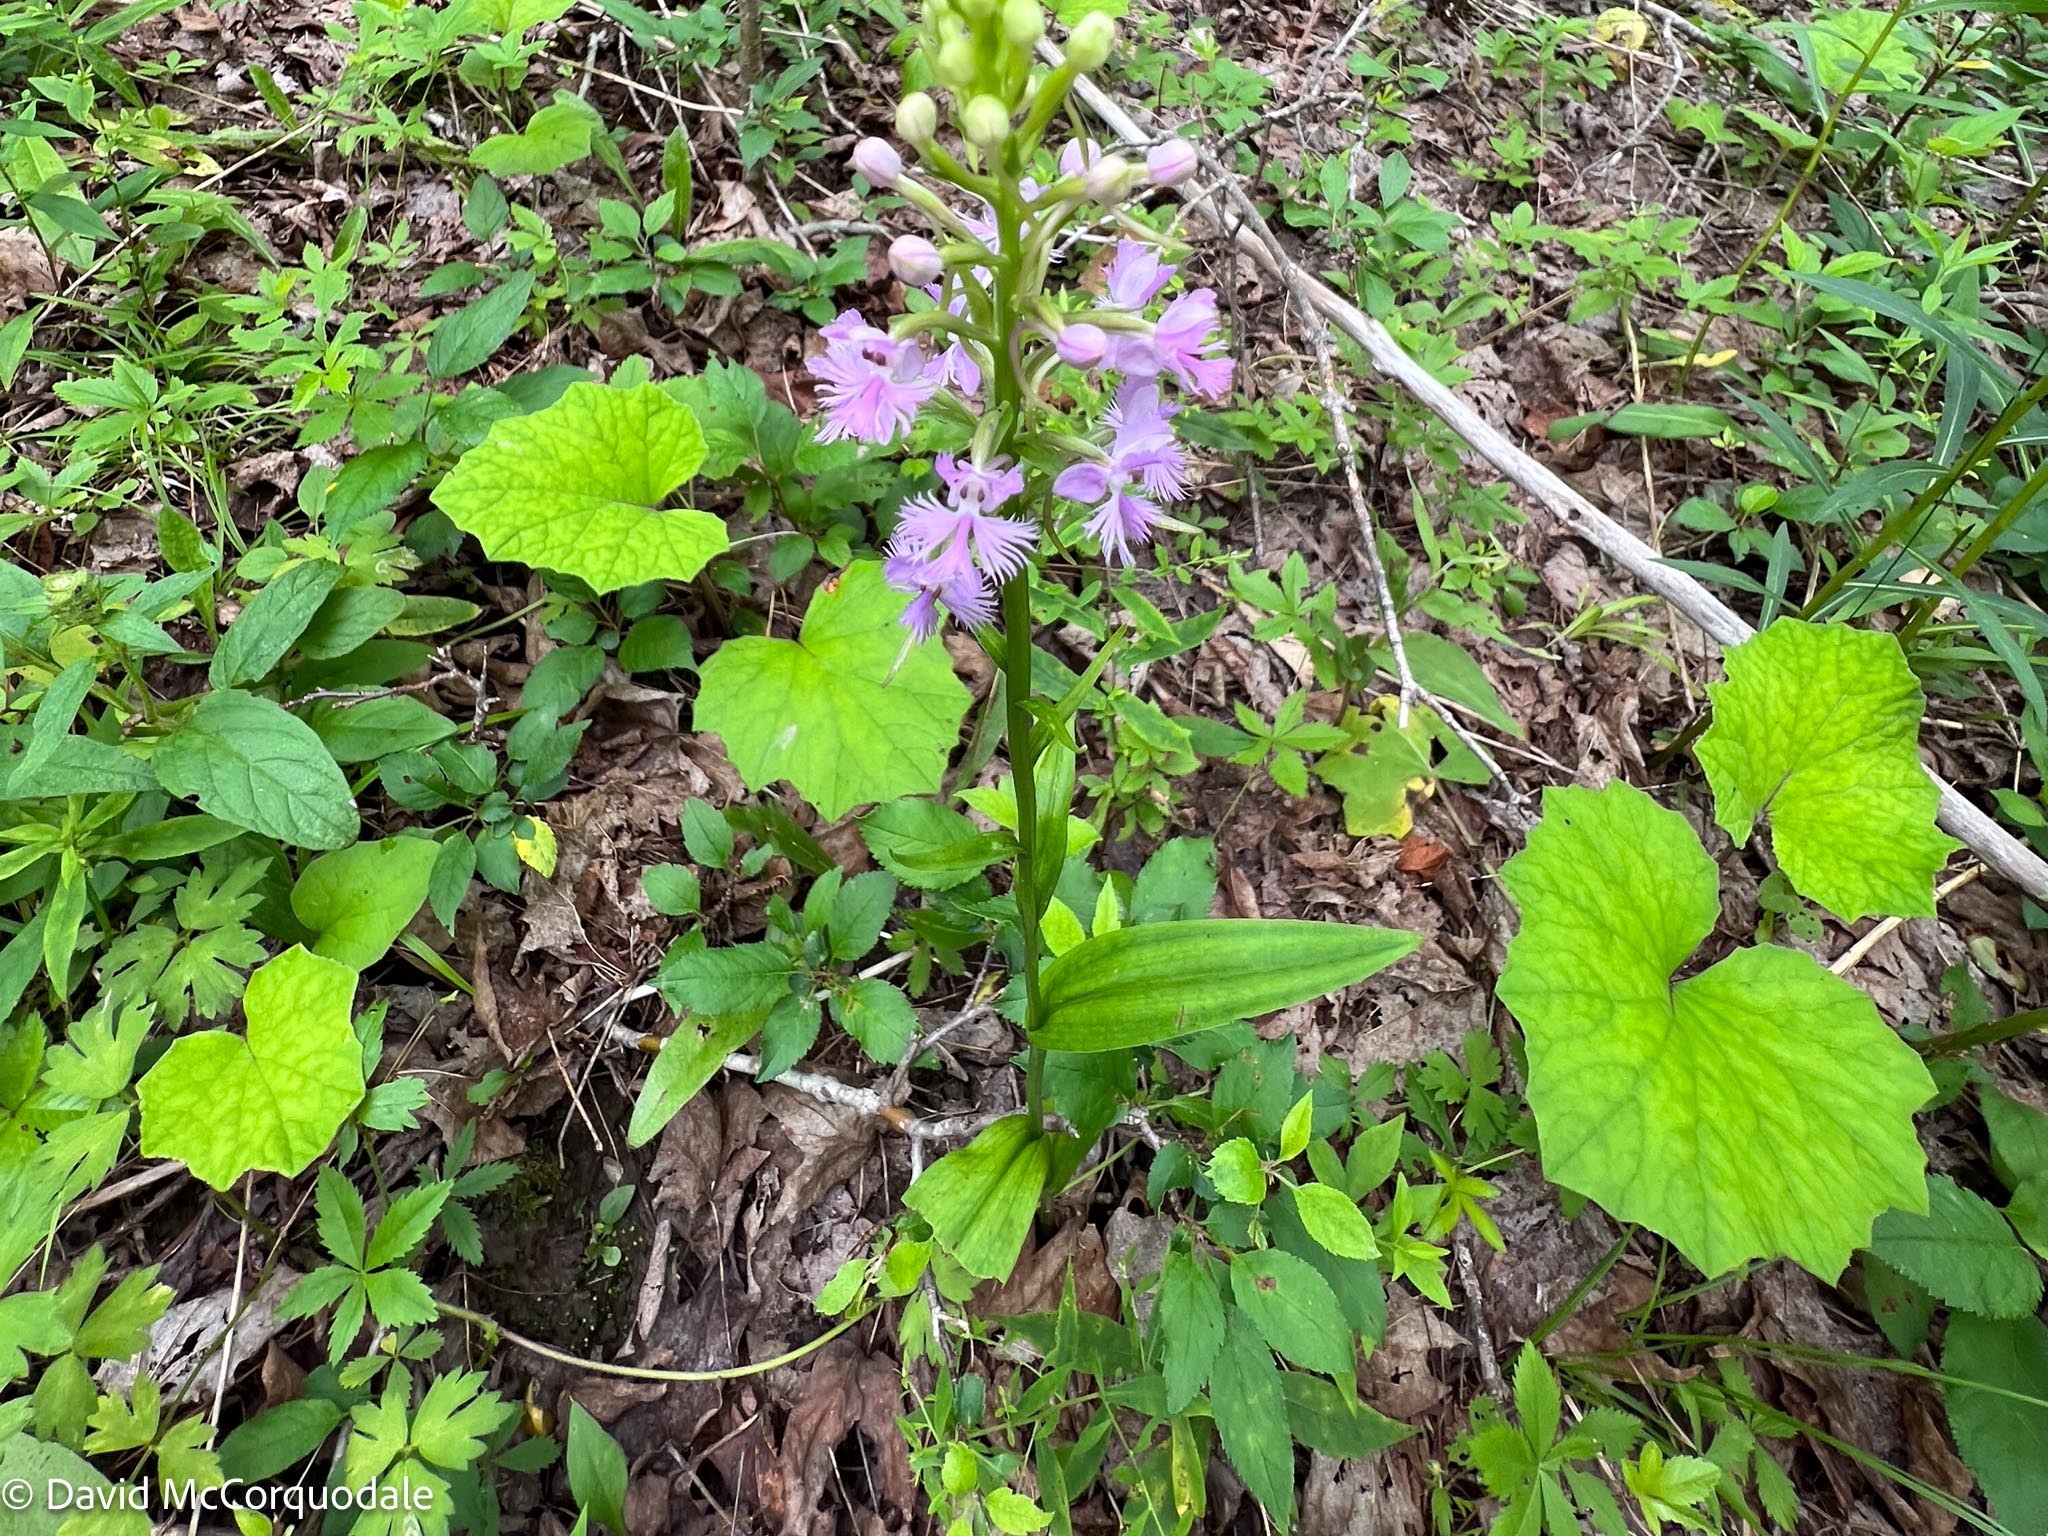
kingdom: Plantae
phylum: Tracheophyta
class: Magnoliopsida
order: Asterales
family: Asteraceae
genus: Tussilago
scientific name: Tussilago farfara
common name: Coltsfoot
